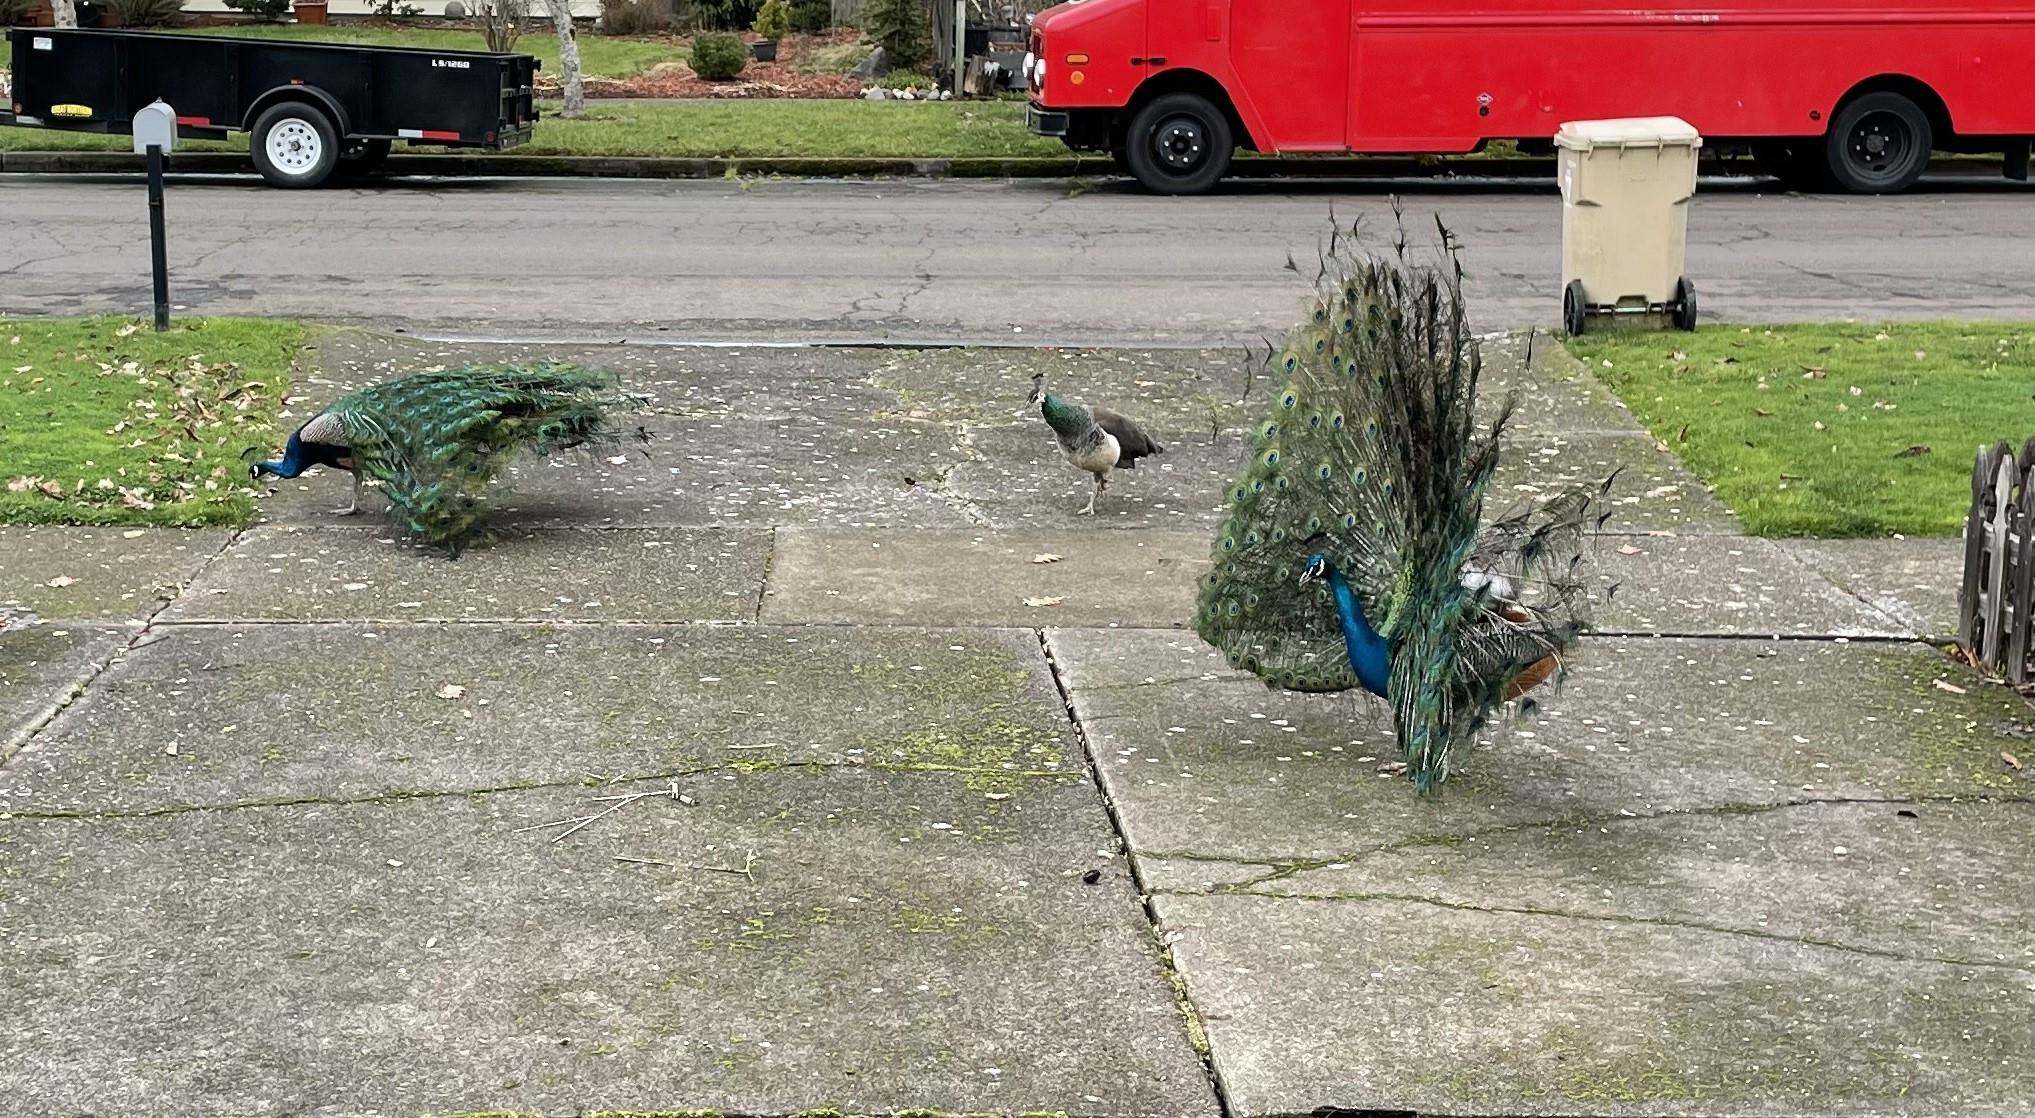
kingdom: Animalia
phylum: Chordata
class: Aves
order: Galliformes
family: Phasianidae
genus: Pavo
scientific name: Pavo cristatus
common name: Indian peafowl
